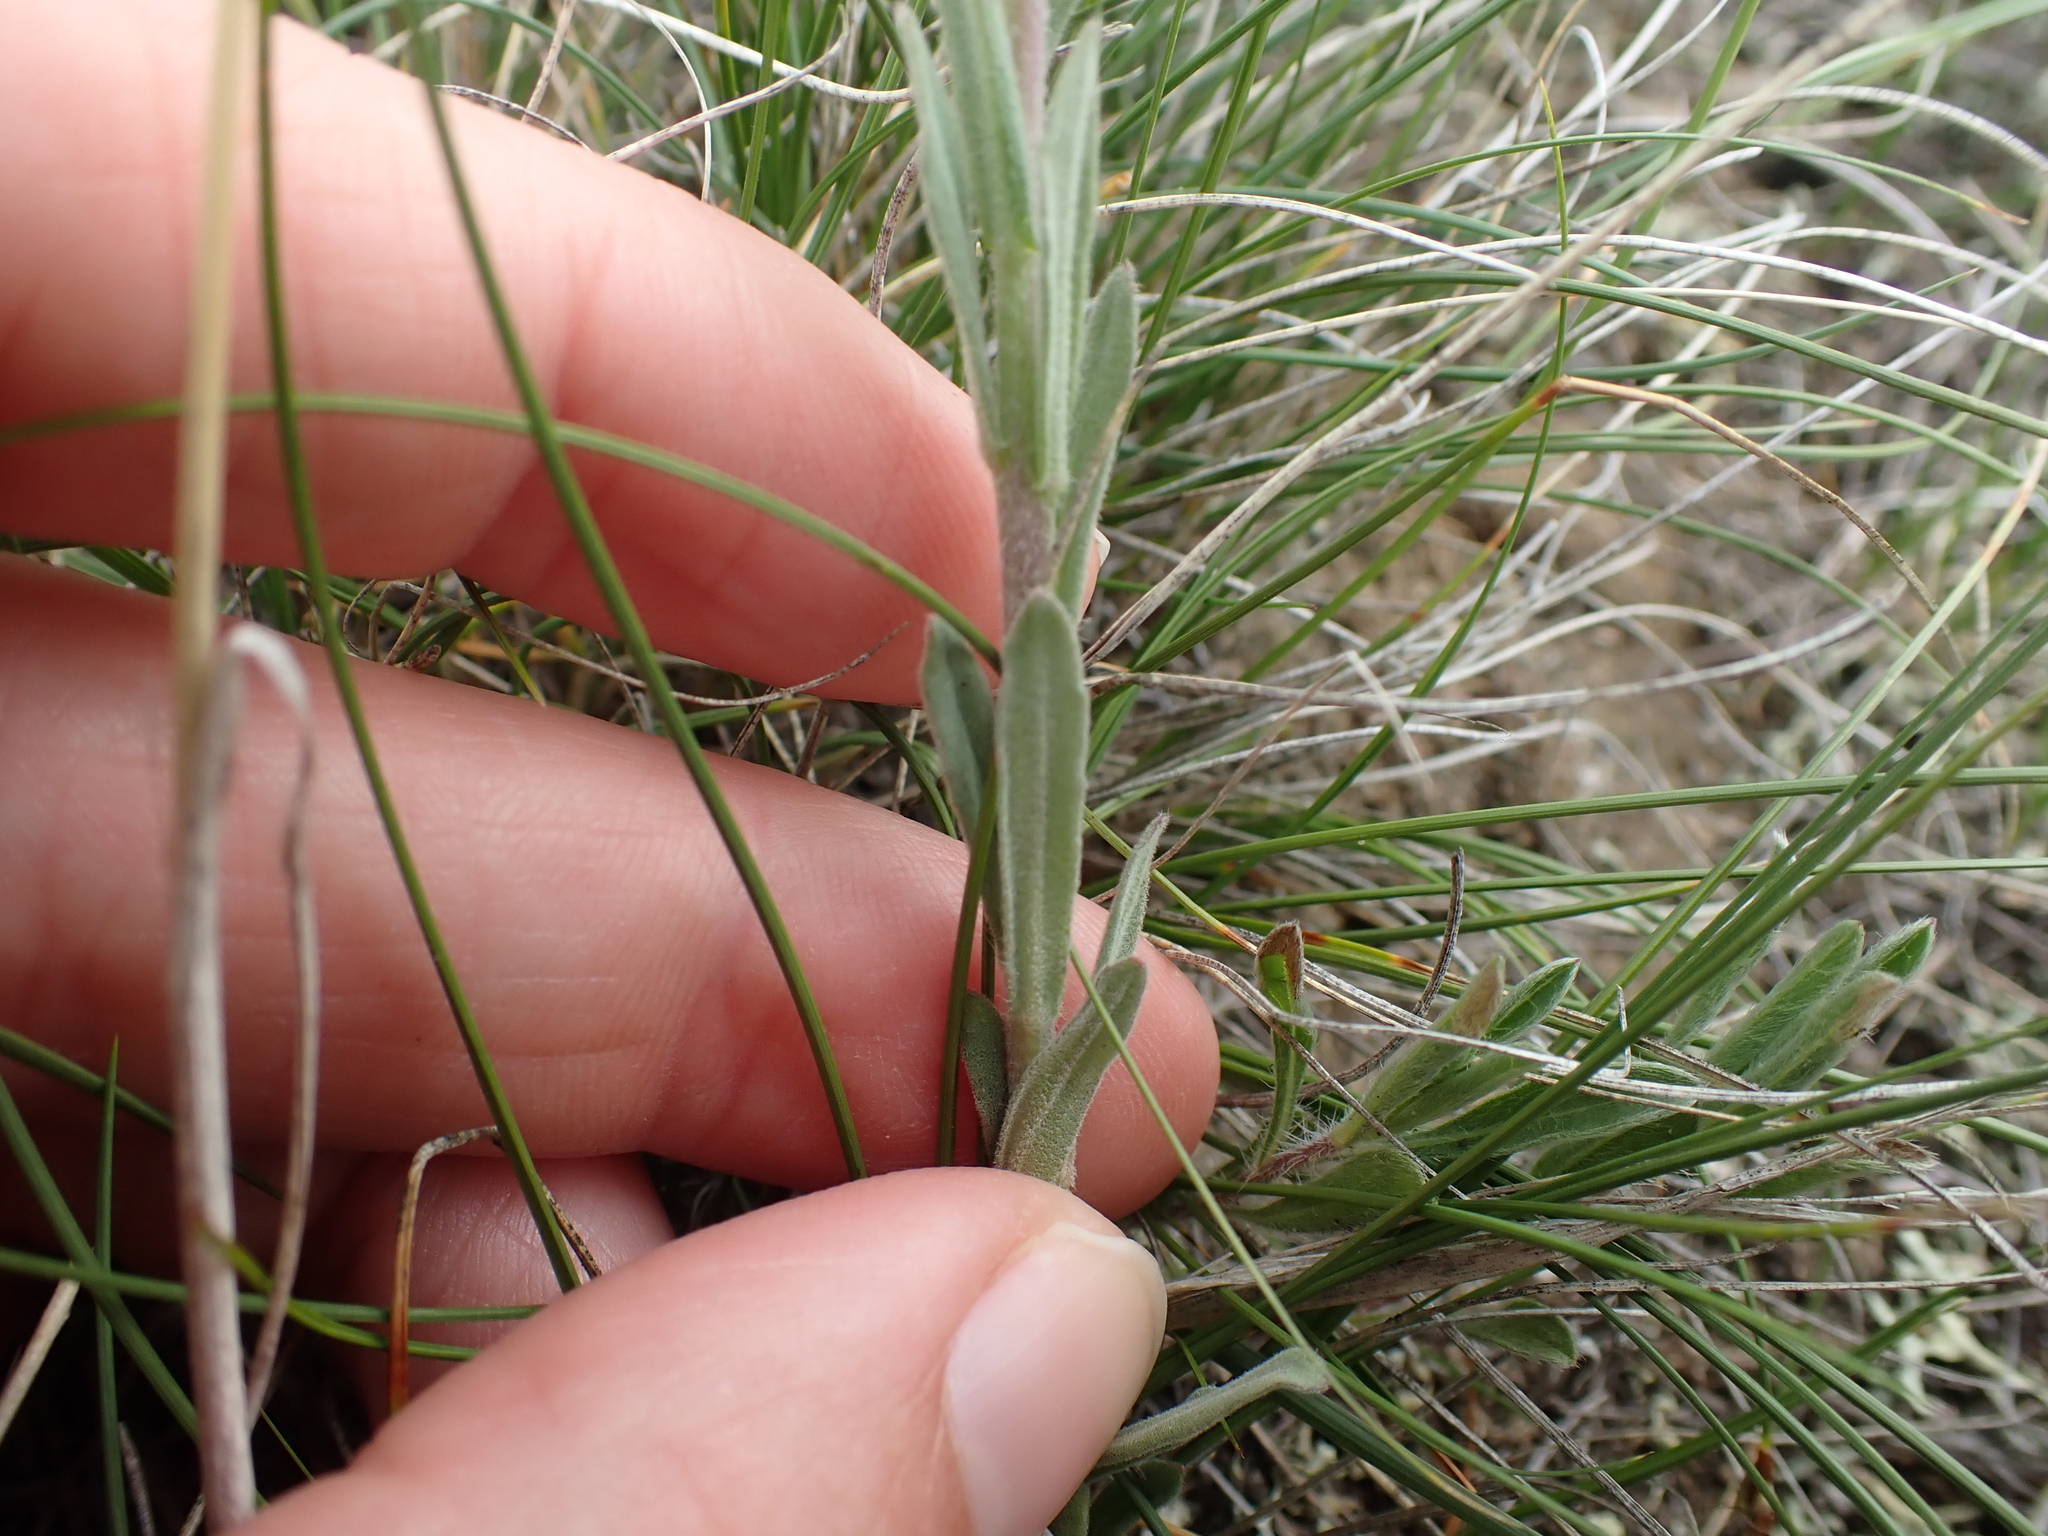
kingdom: Plantae
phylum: Tracheophyta
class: Magnoliopsida
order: Brassicales
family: Brassicaceae
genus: Boechera
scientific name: Boechera retrofracta
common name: Dangling suncress
